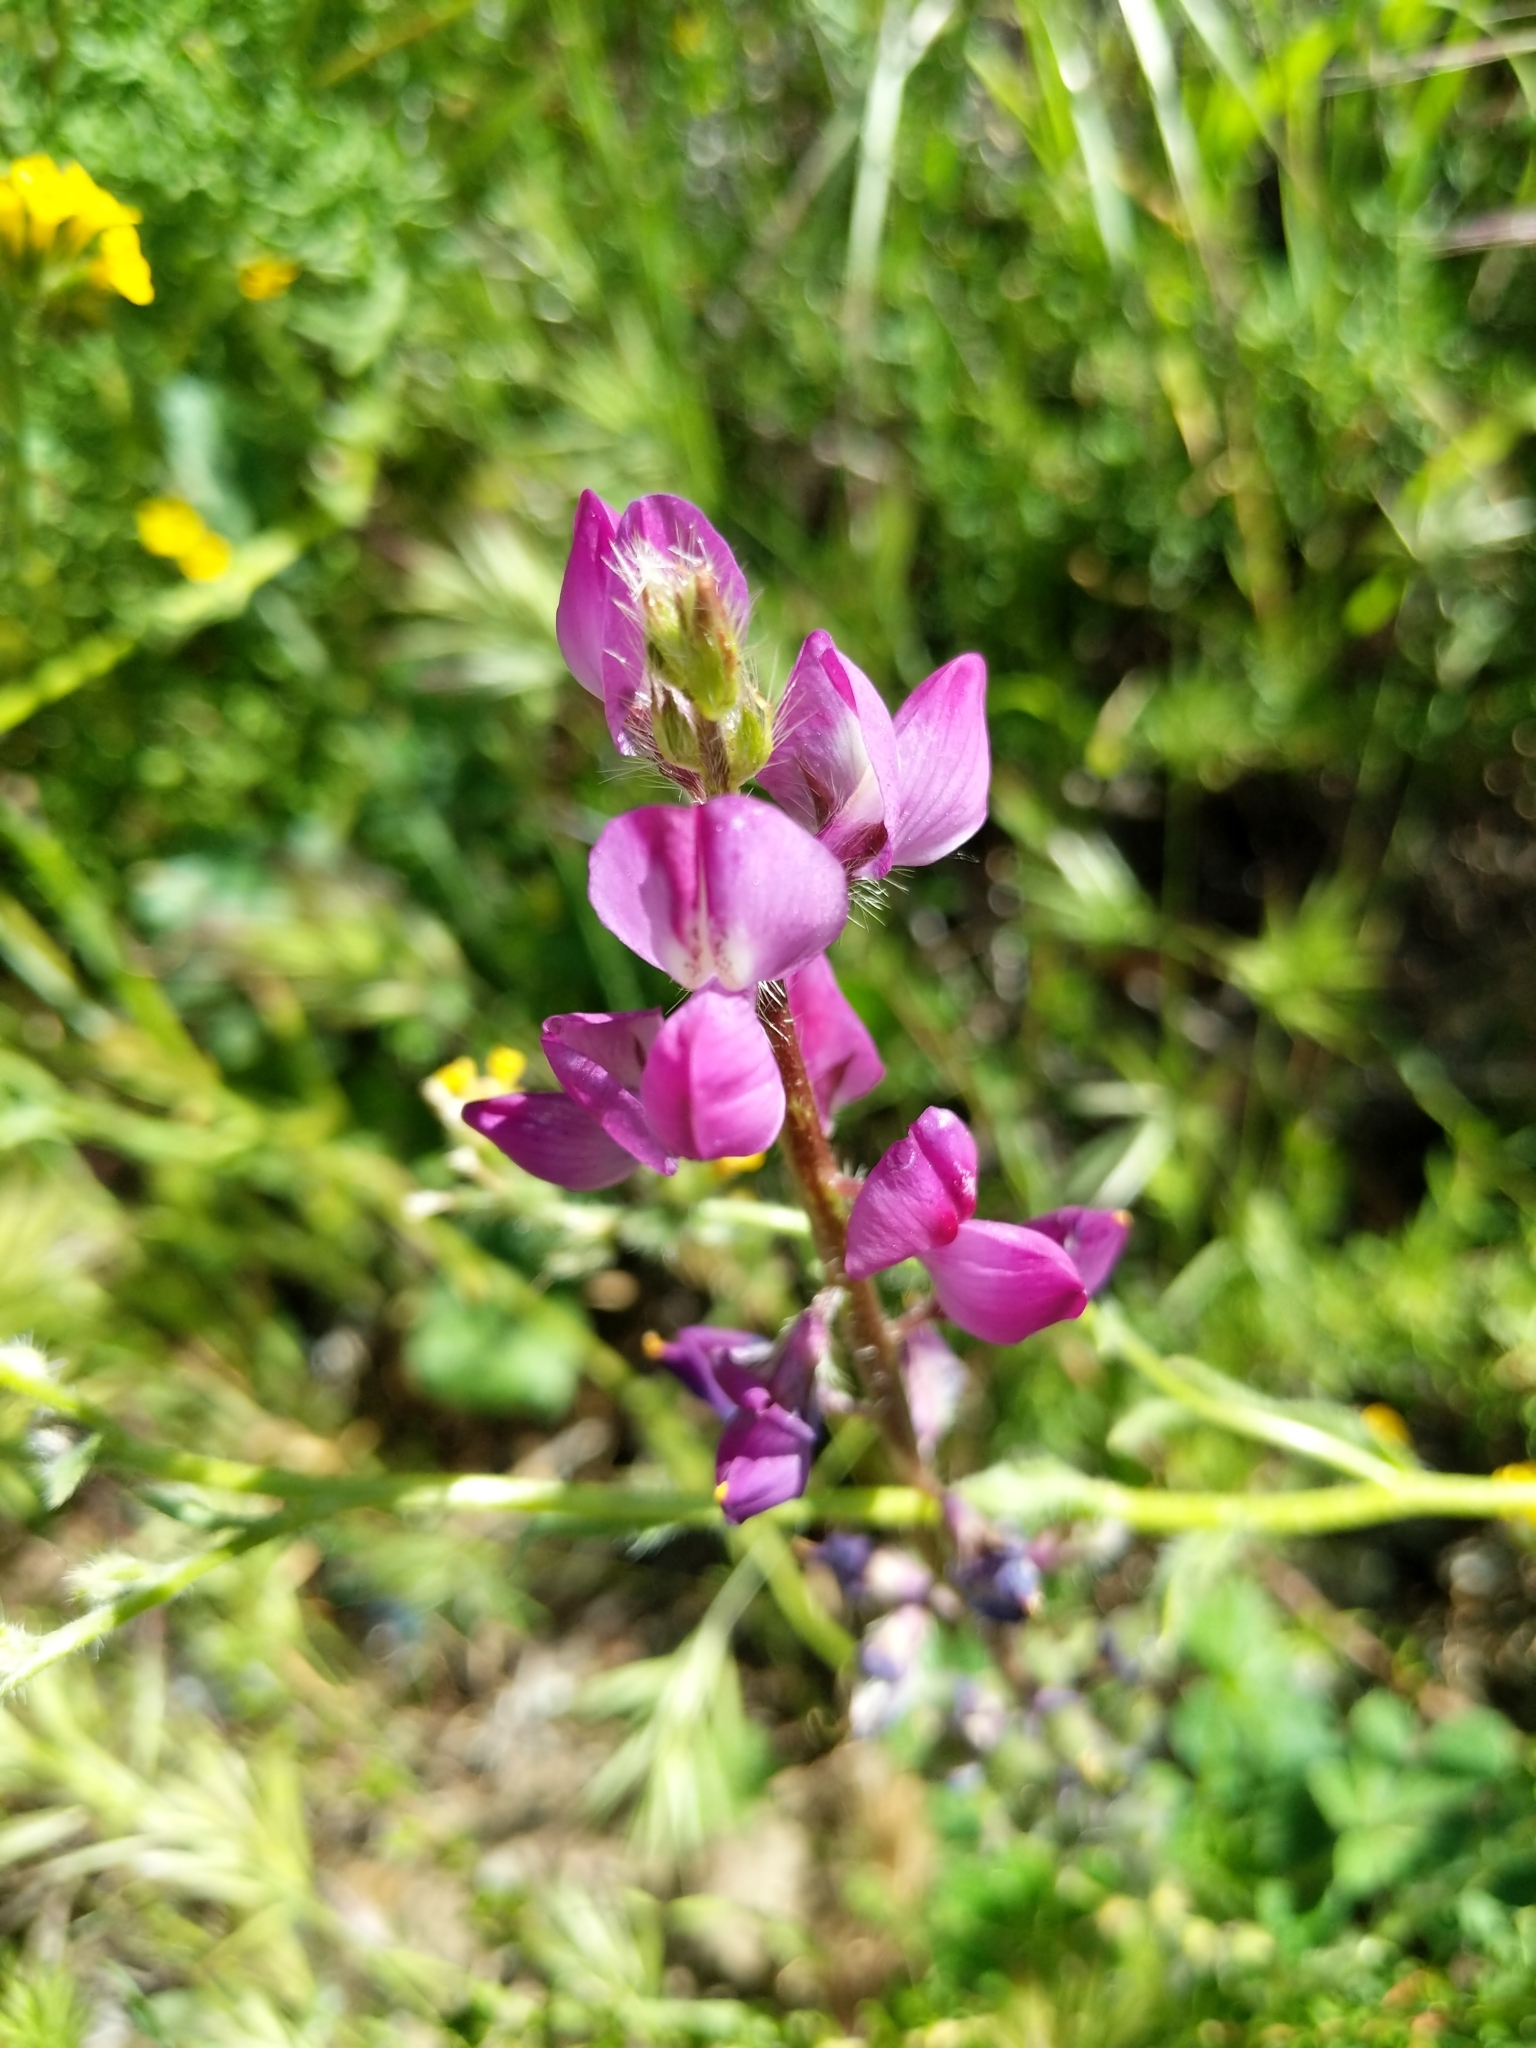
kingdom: Plantae
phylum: Tracheophyta
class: Magnoliopsida
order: Fabales
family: Fabaceae
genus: Lupinus
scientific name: Lupinus hirsutissimus
